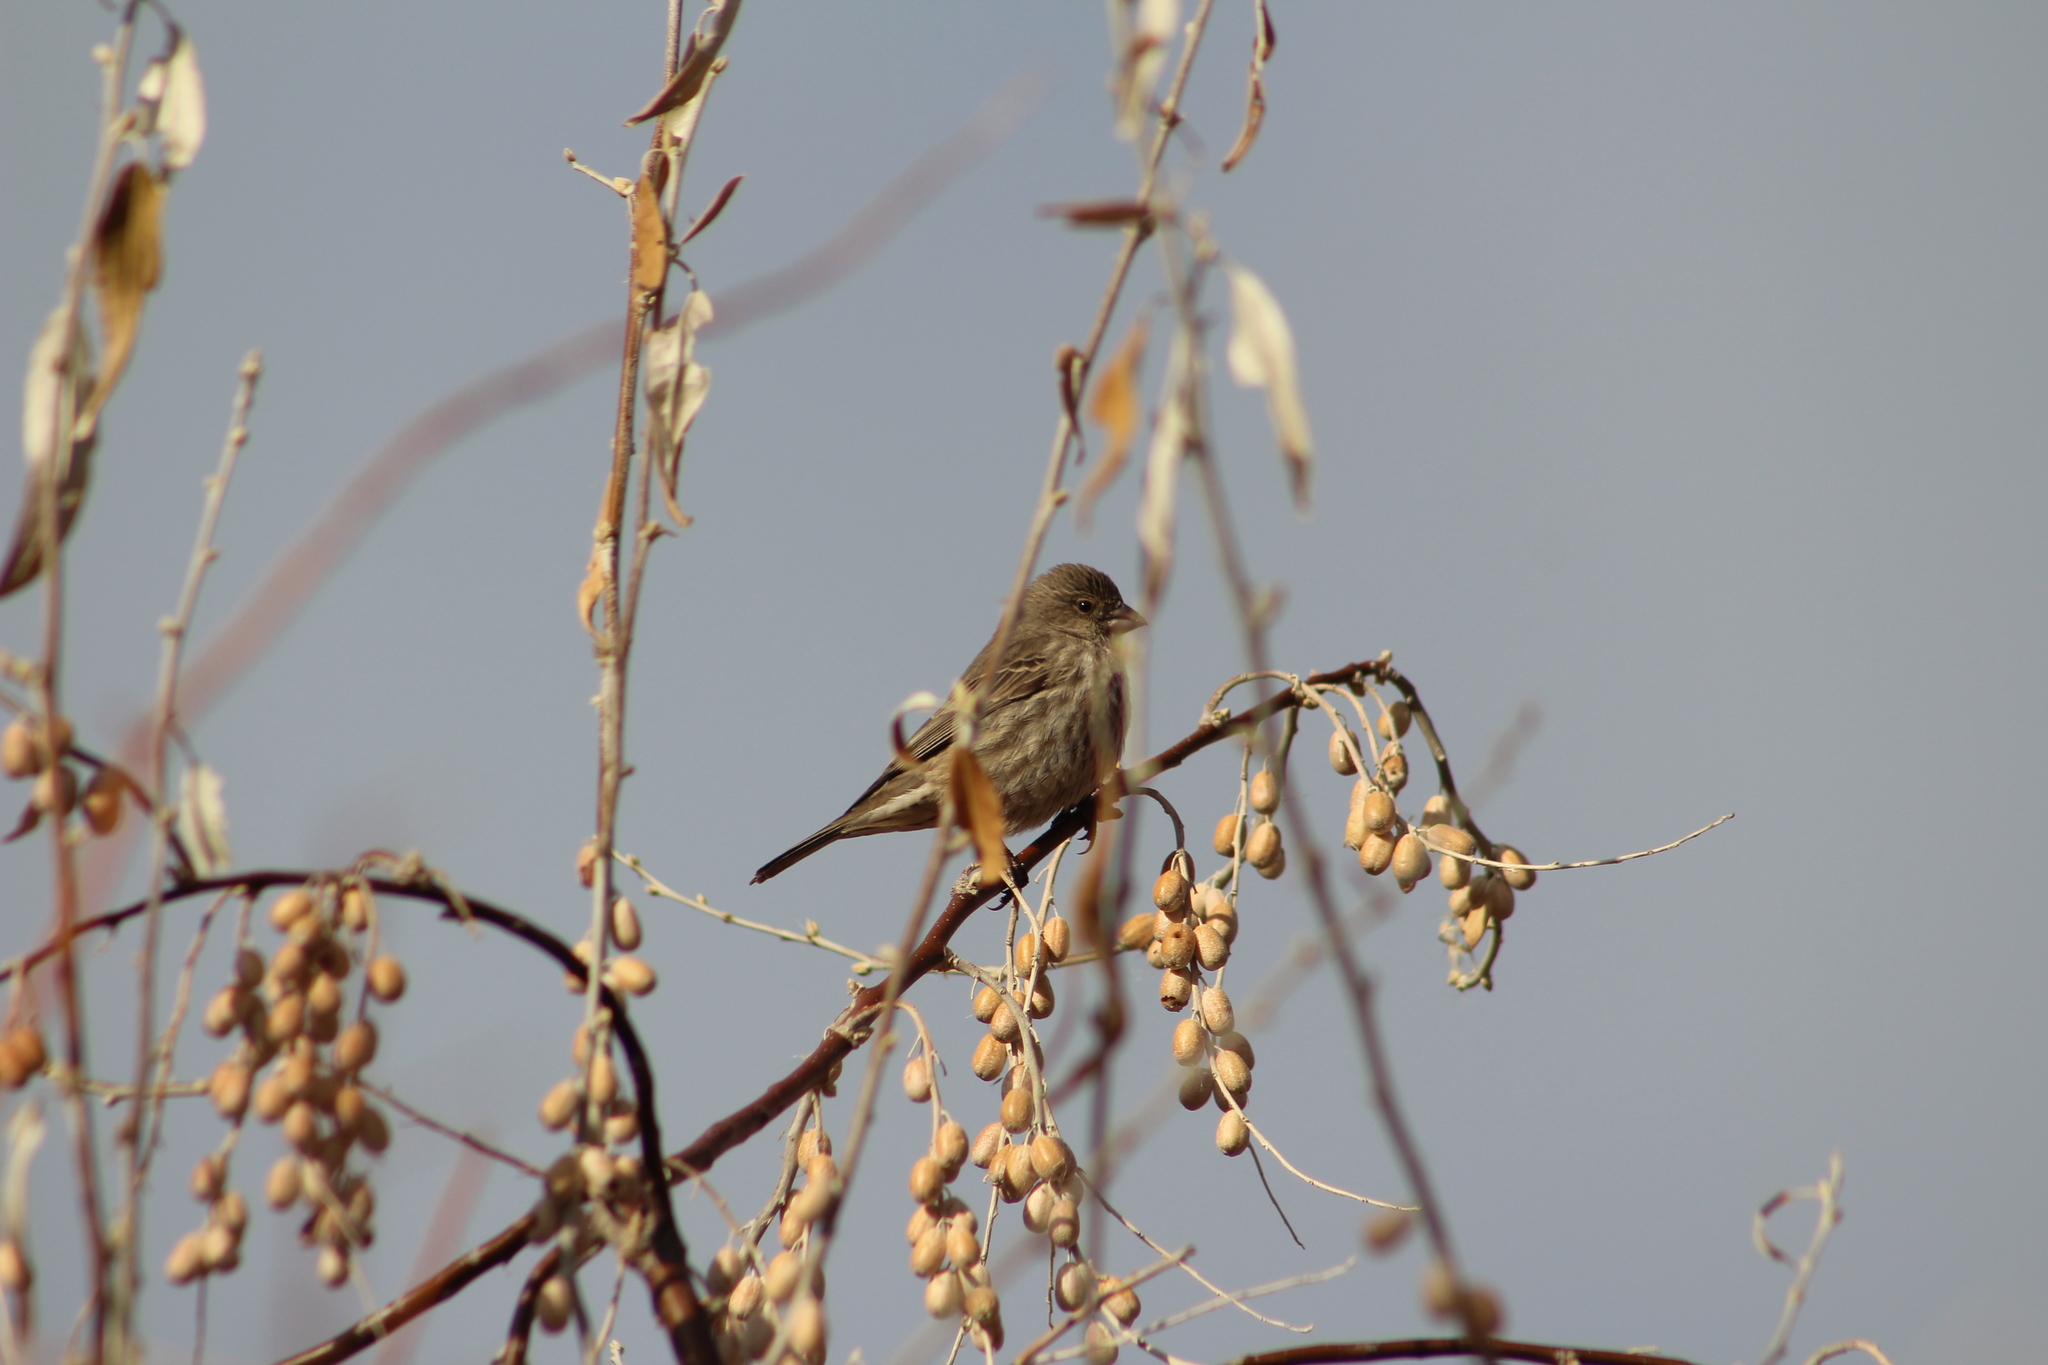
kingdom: Animalia
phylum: Chordata
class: Aves
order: Passeriformes
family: Fringillidae
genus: Haemorhous
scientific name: Haemorhous mexicanus
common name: House finch
